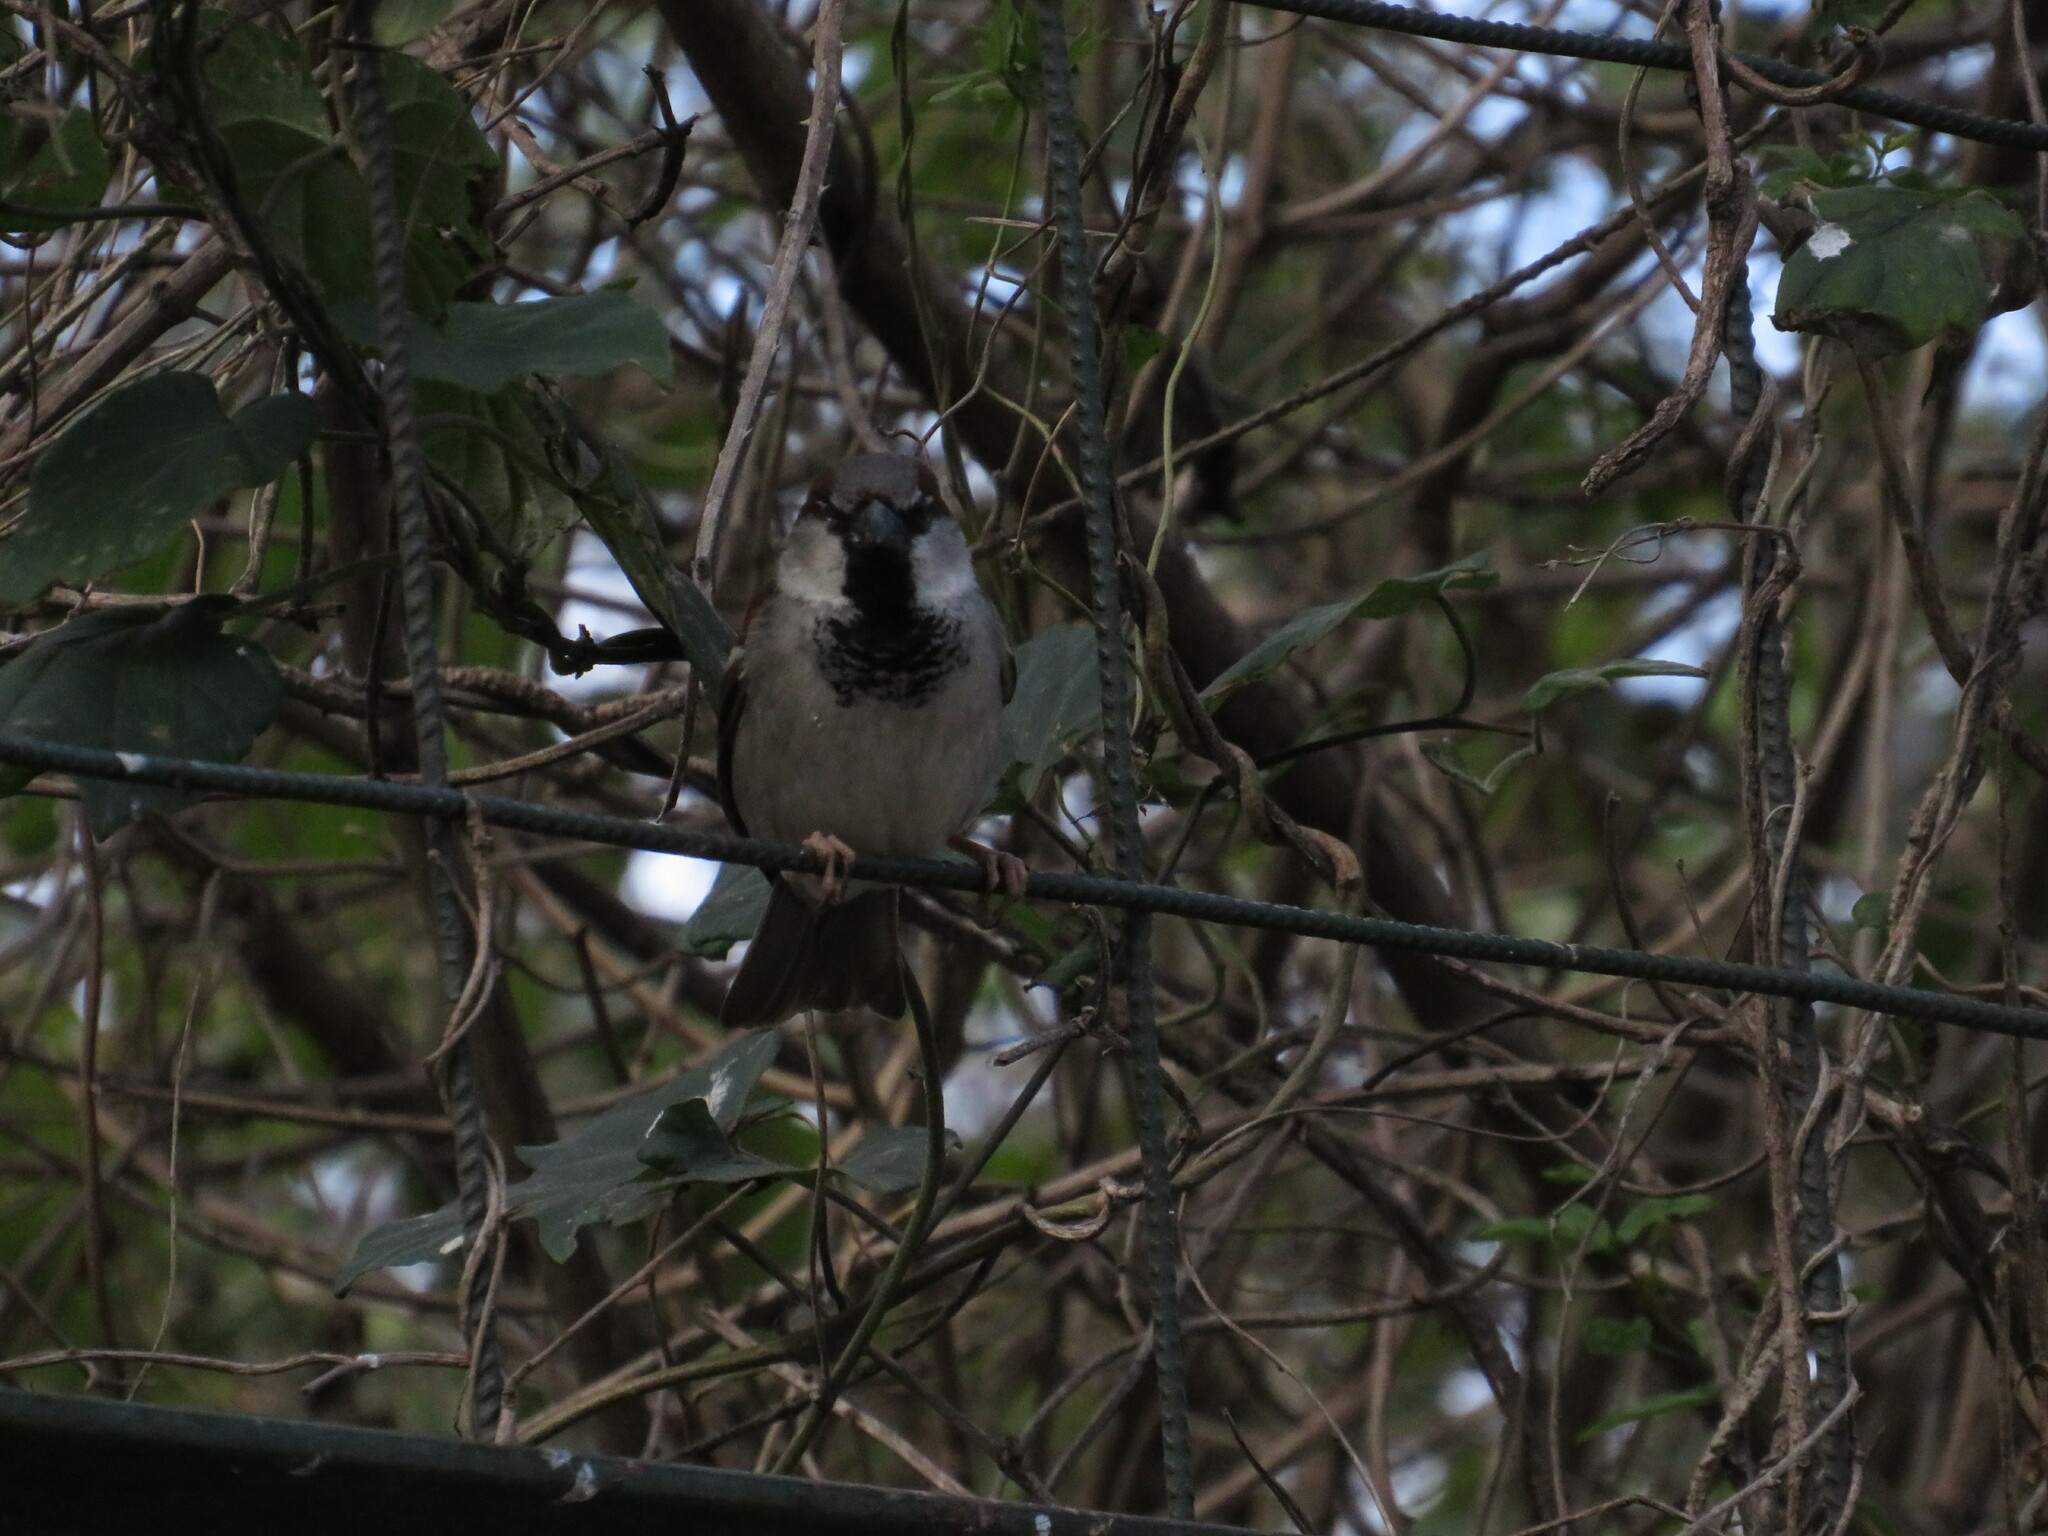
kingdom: Animalia
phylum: Chordata
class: Aves
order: Passeriformes
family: Passeridae
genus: Passer
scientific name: Passer domesticus
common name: House sparrow
